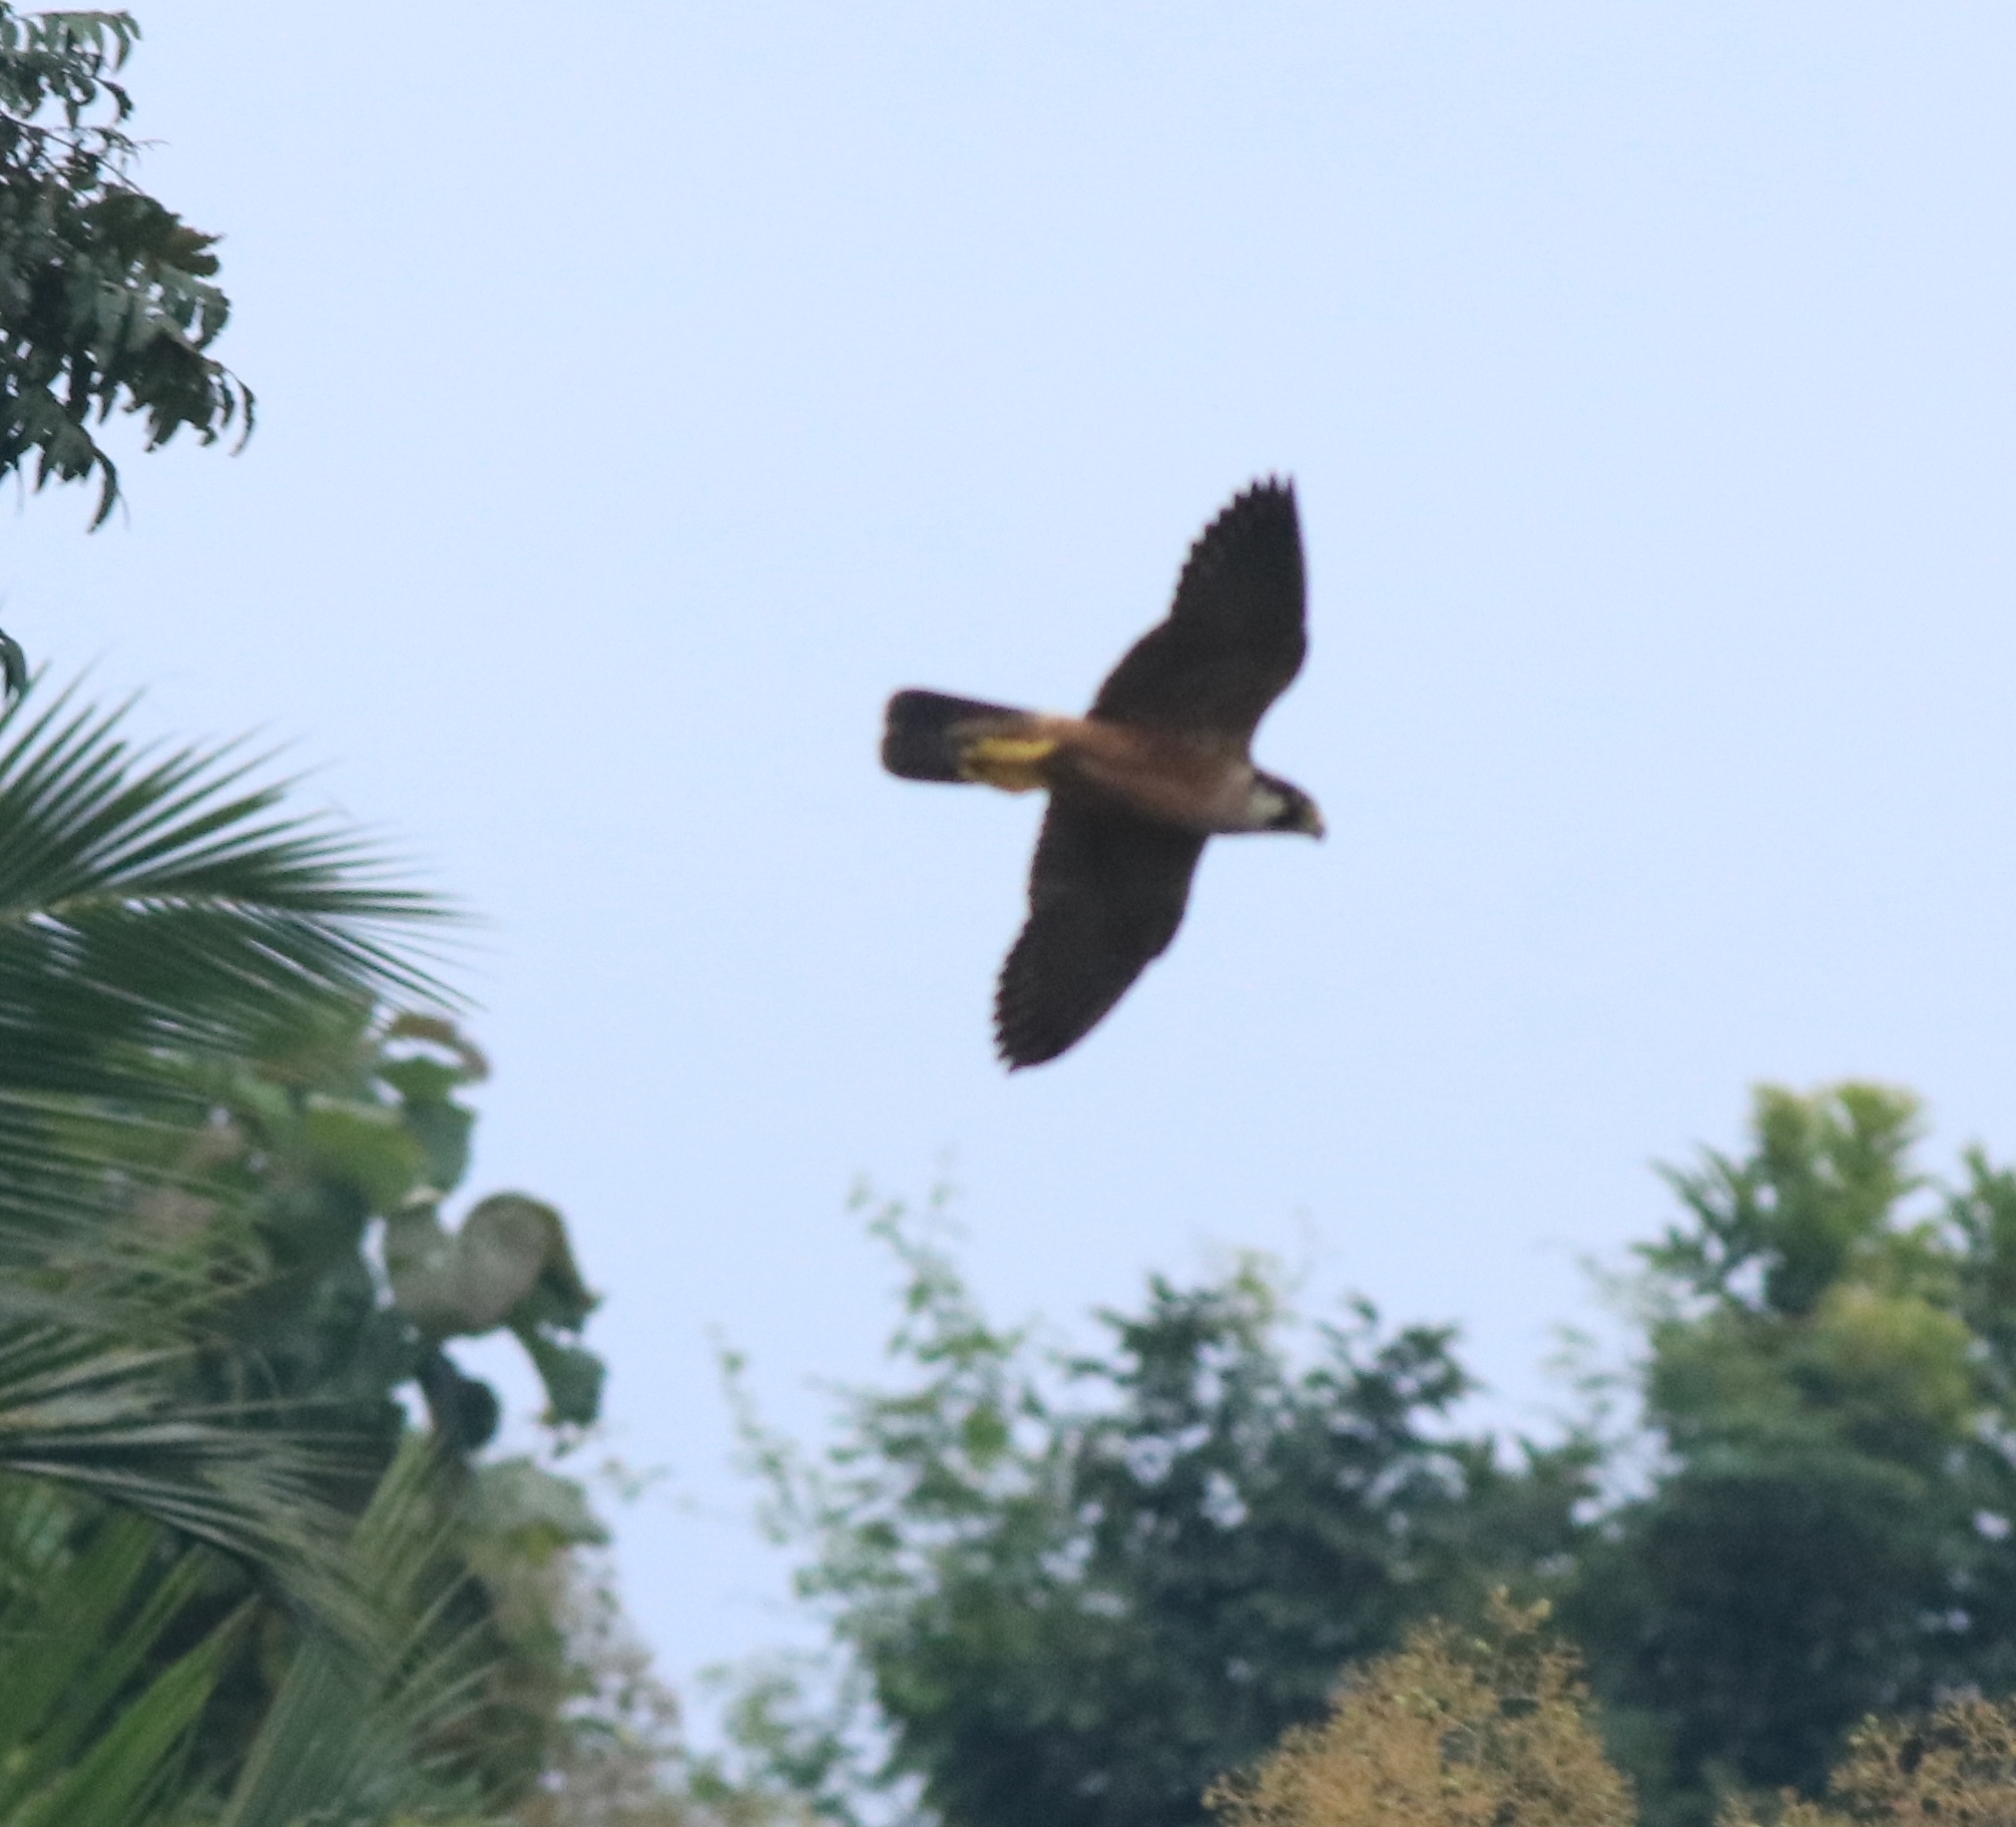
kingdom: Animalia
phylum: Chordata
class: Aves
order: Falconiformes
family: Falconidae
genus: Falco
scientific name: Falco peregrinus
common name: Peregrine falcon
